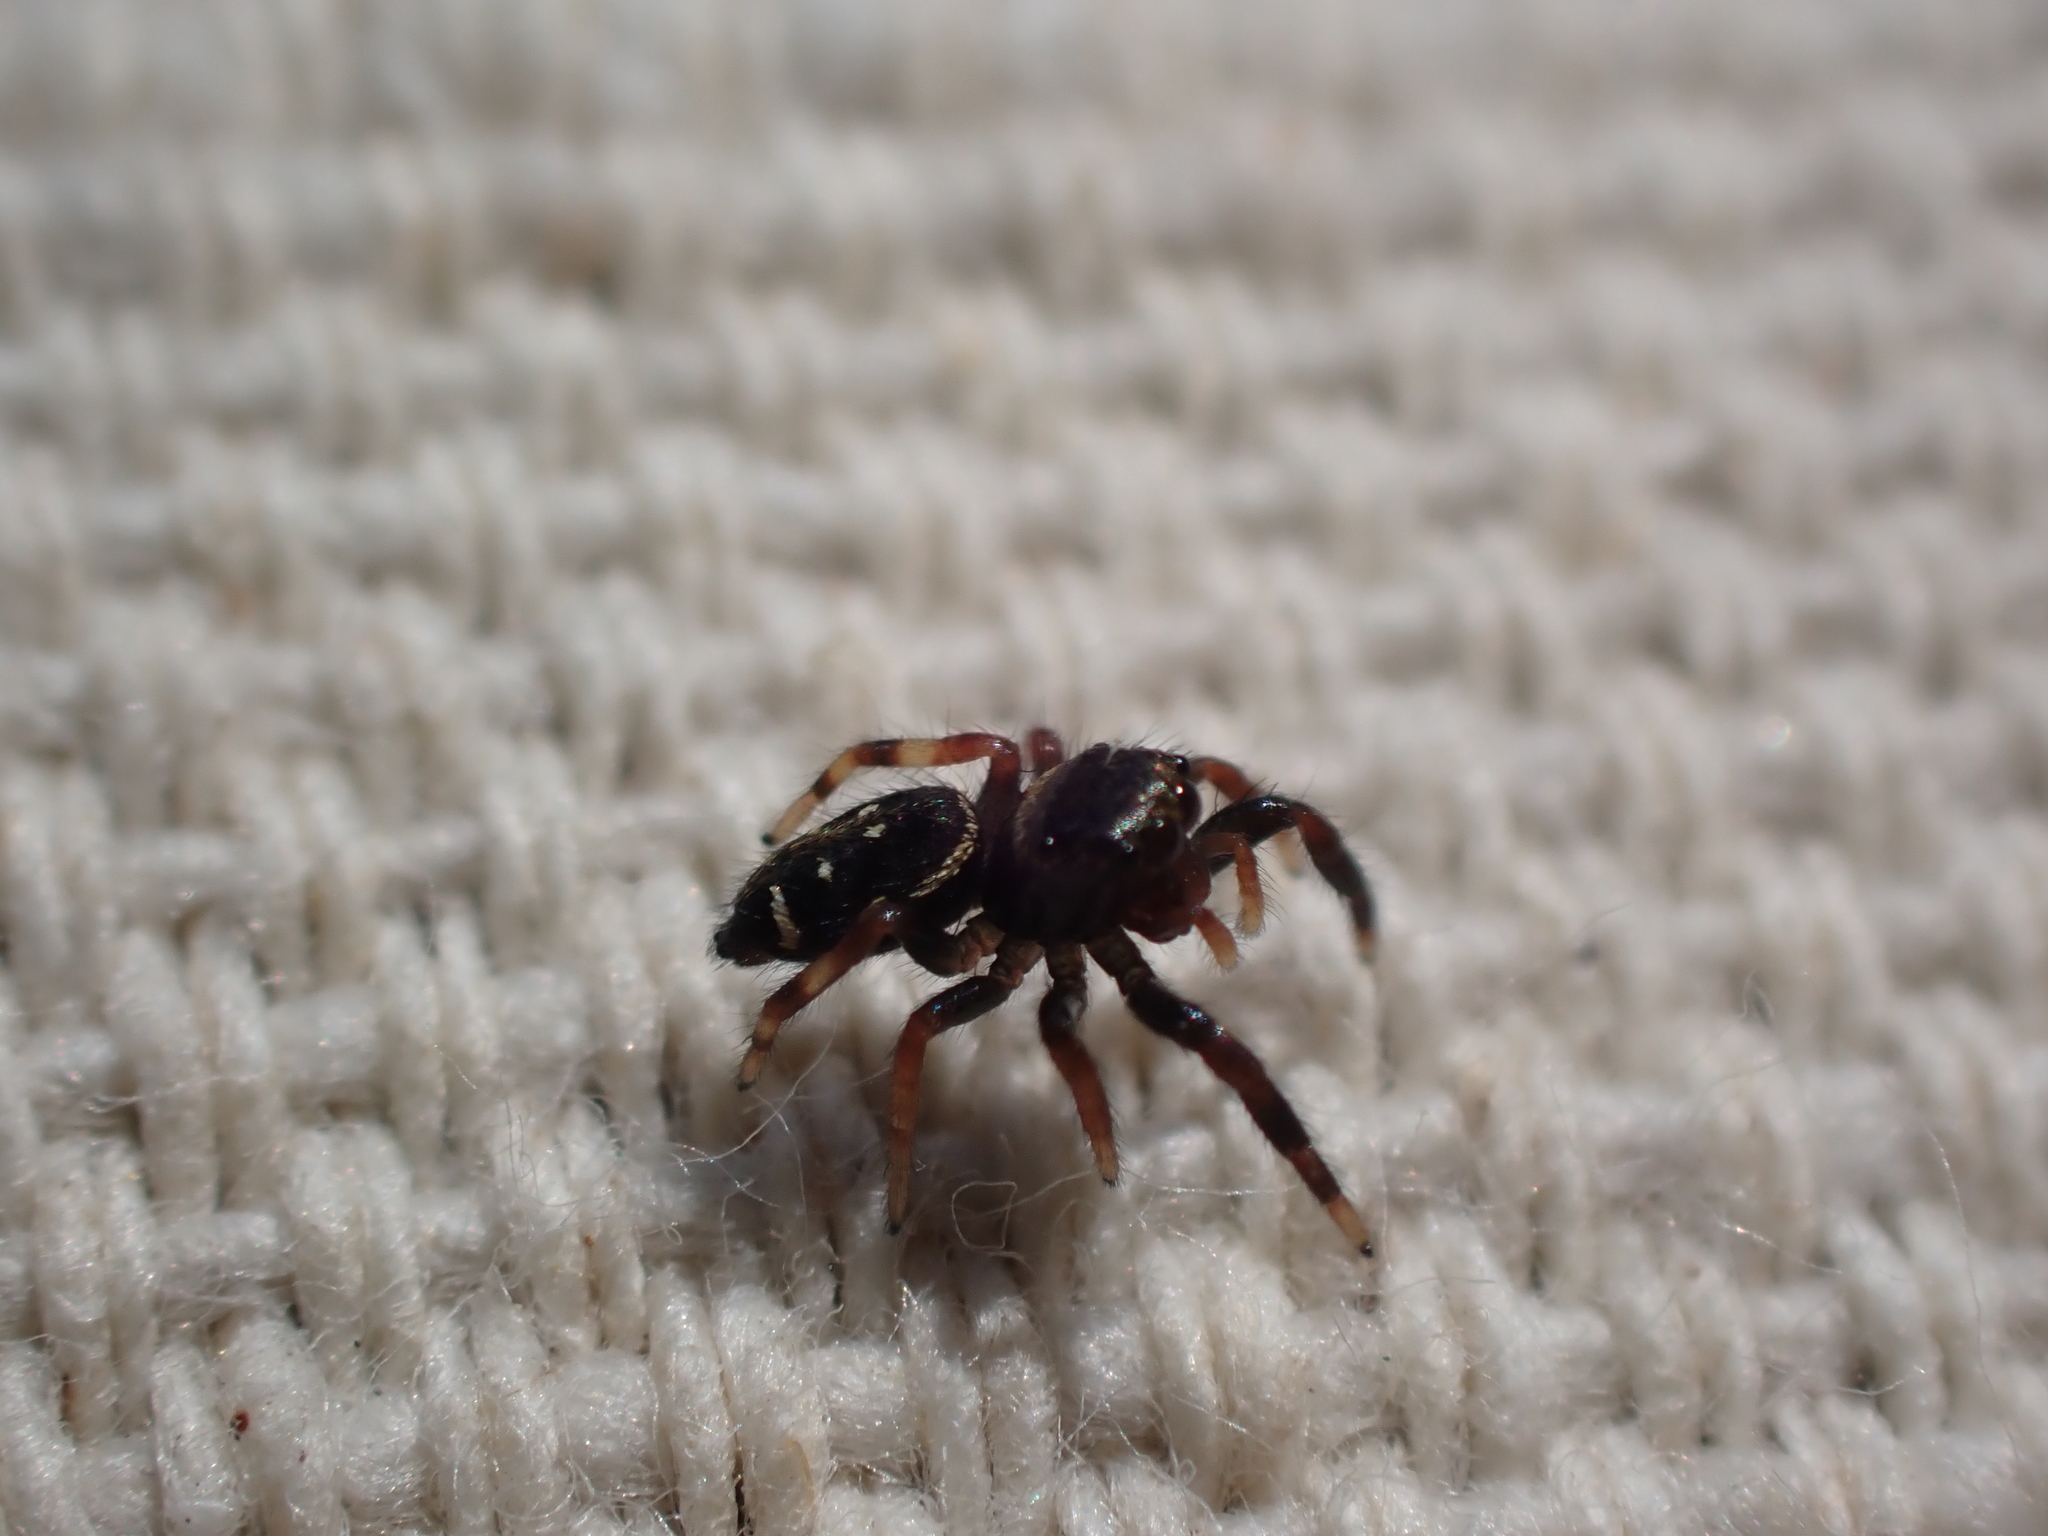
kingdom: Animalia
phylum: Arthropoda
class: Arachnida
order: Araneae
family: Salticidae
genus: Paraphidippus
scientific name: Paraphidippus aurantius
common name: Jumping spiders
